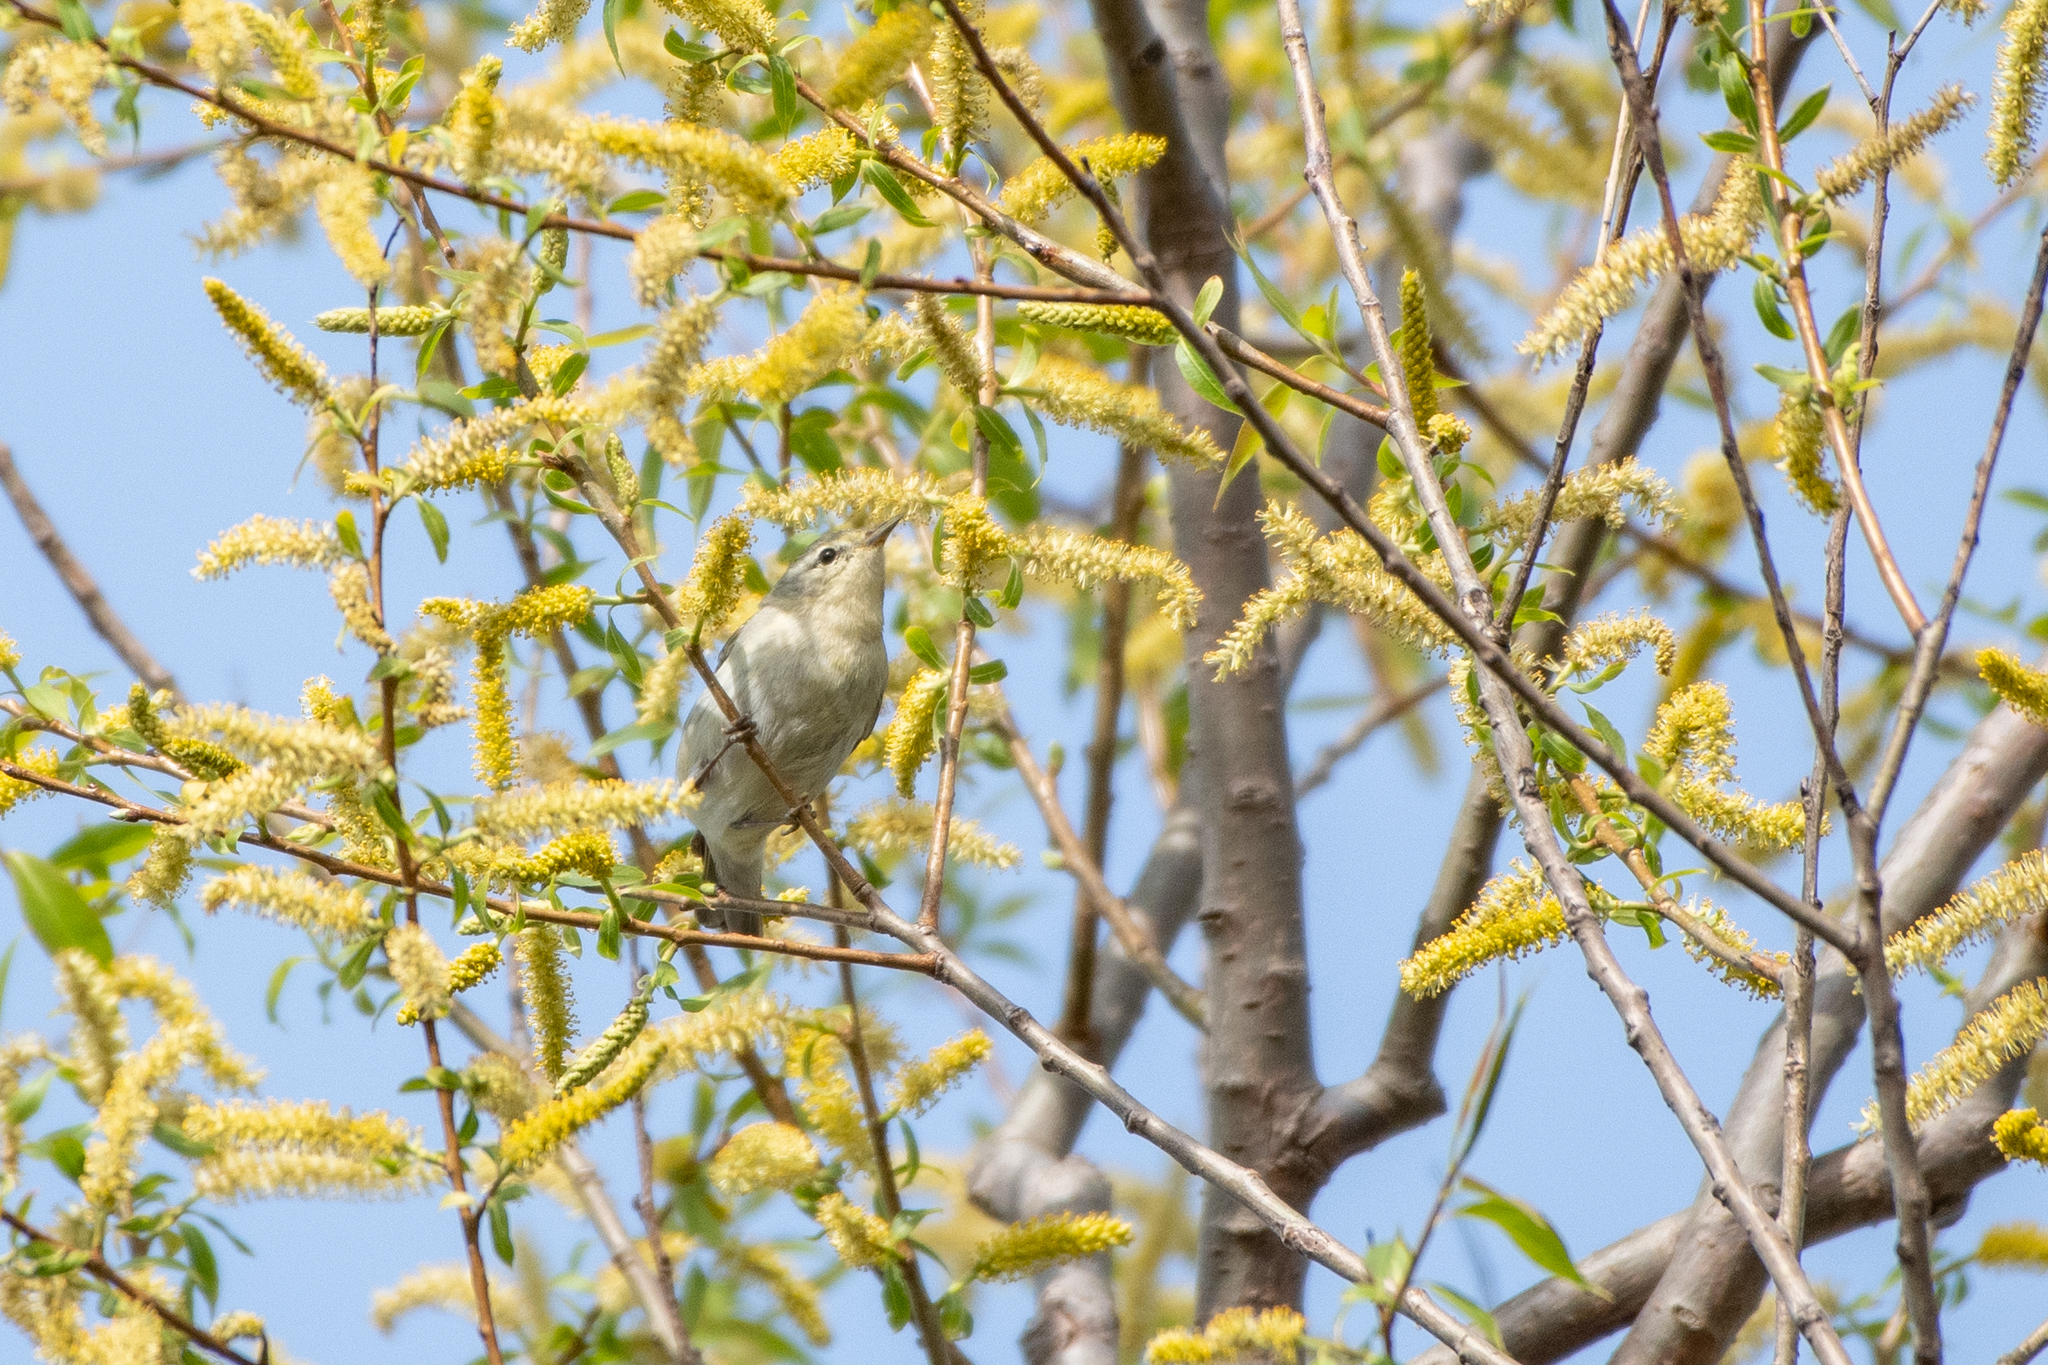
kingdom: Animalia
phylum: Chordata
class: Aves
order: Passeriformes
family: Parulidae
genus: Leiothlypis
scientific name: Leiothlypis peregrina
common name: Tennessee warbler
